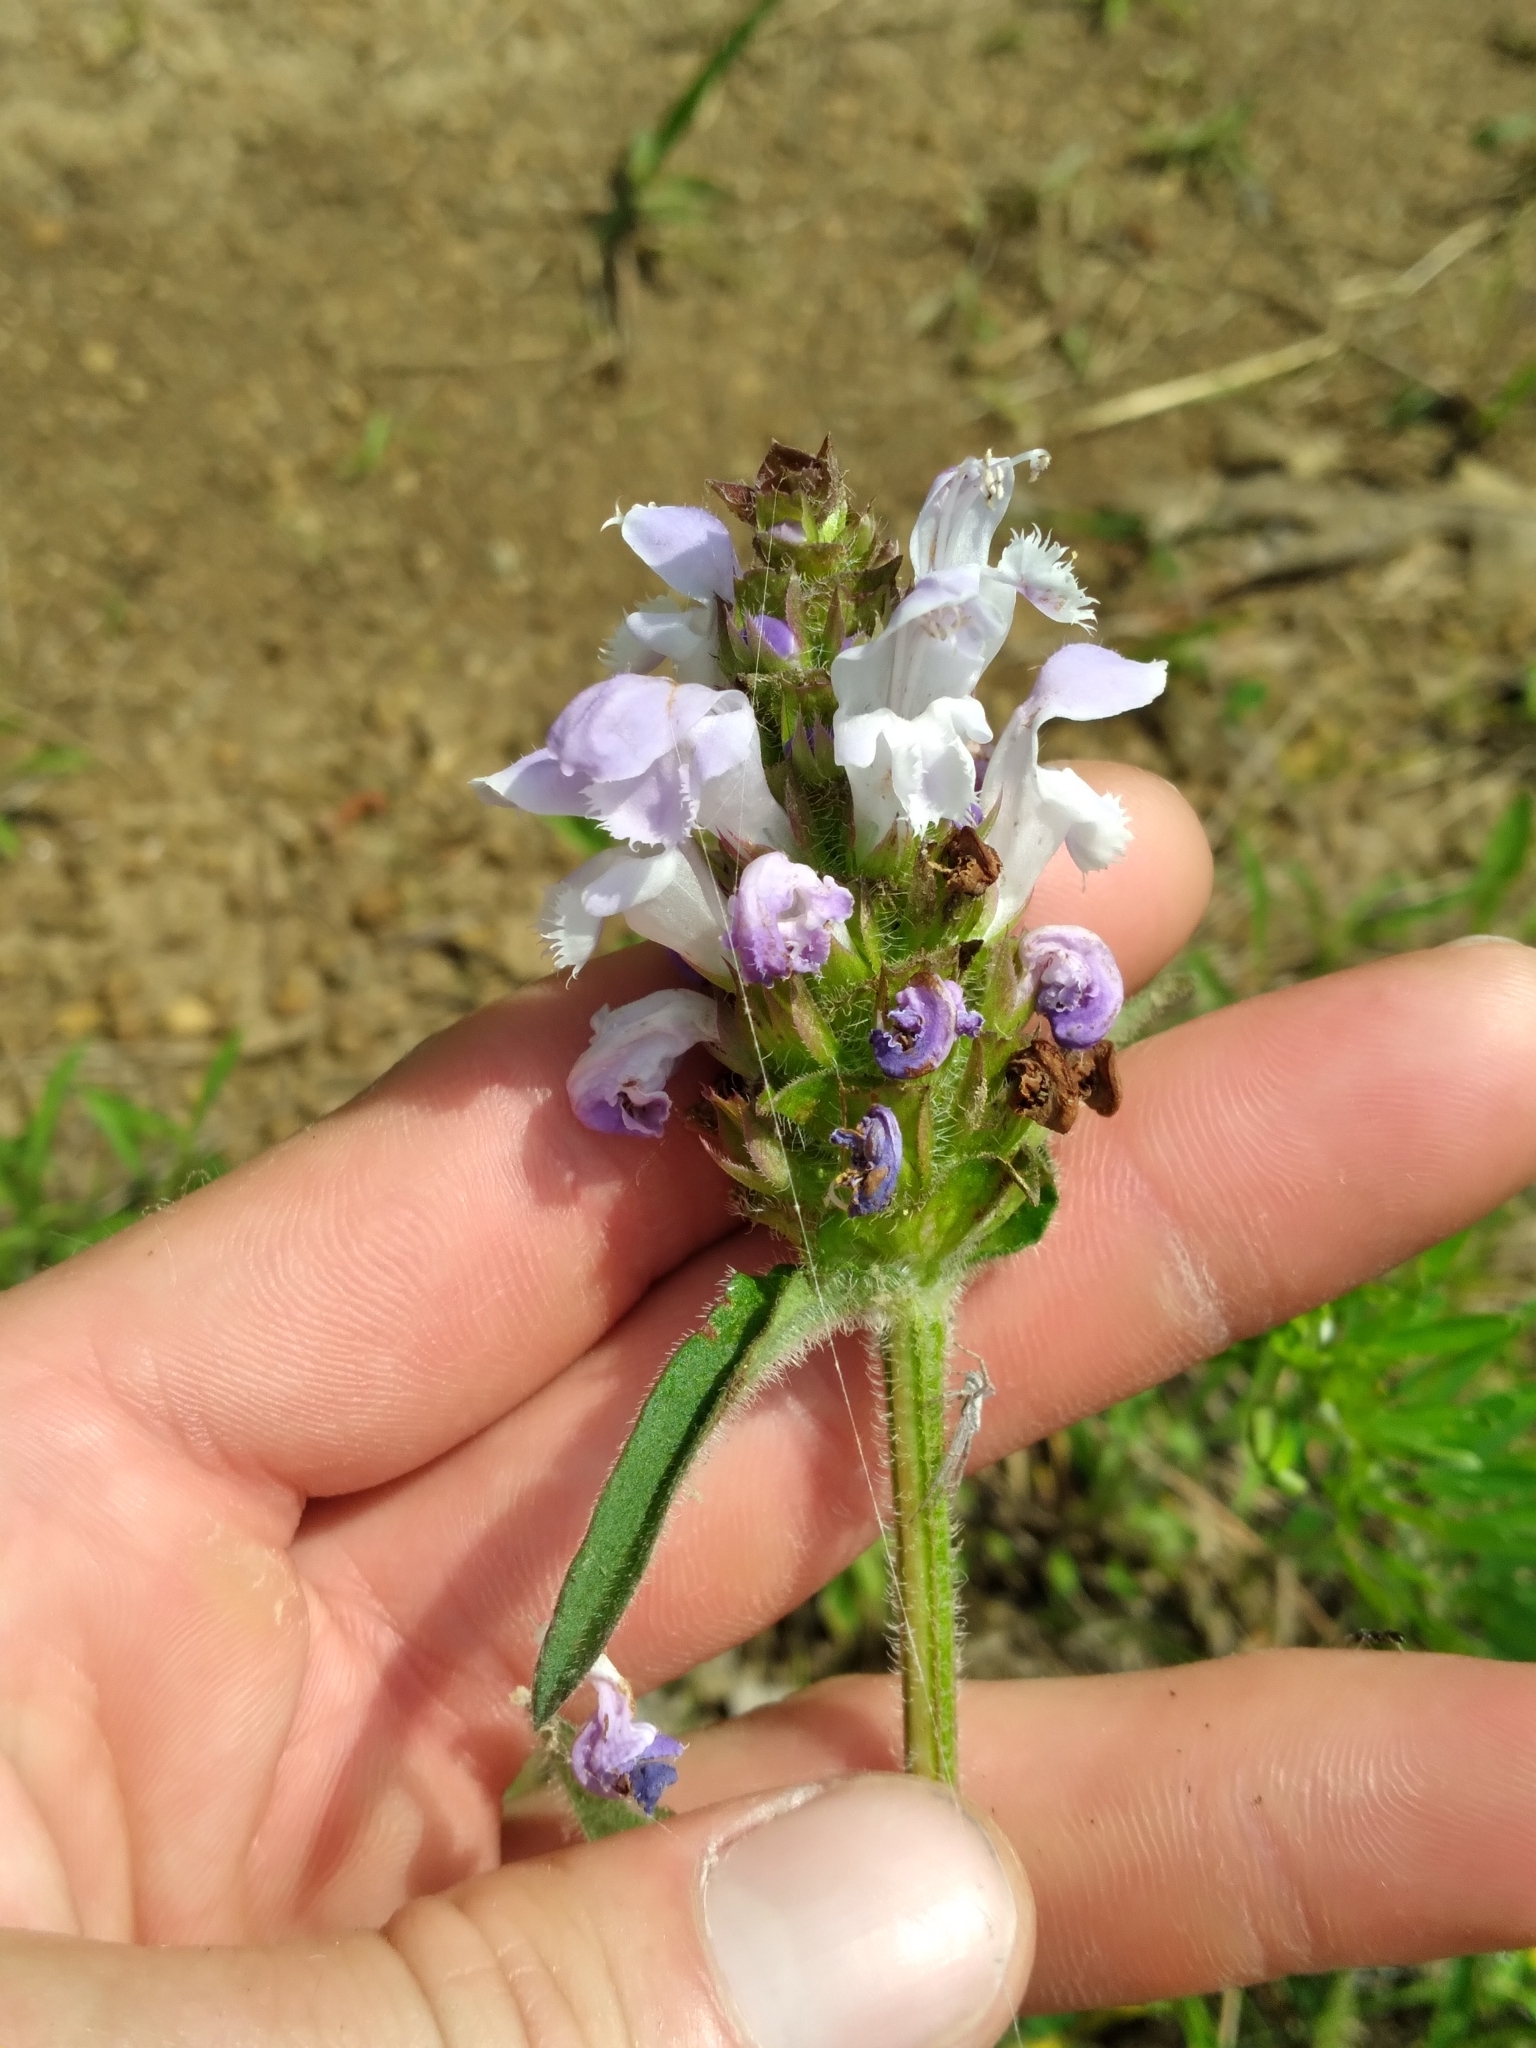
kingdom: Plantae
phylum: Tracheophyta
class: Magnoliopsida
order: Lamiales
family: Lamiaceae
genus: Prunella
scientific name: Prunella vulgaris
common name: Heal-all
